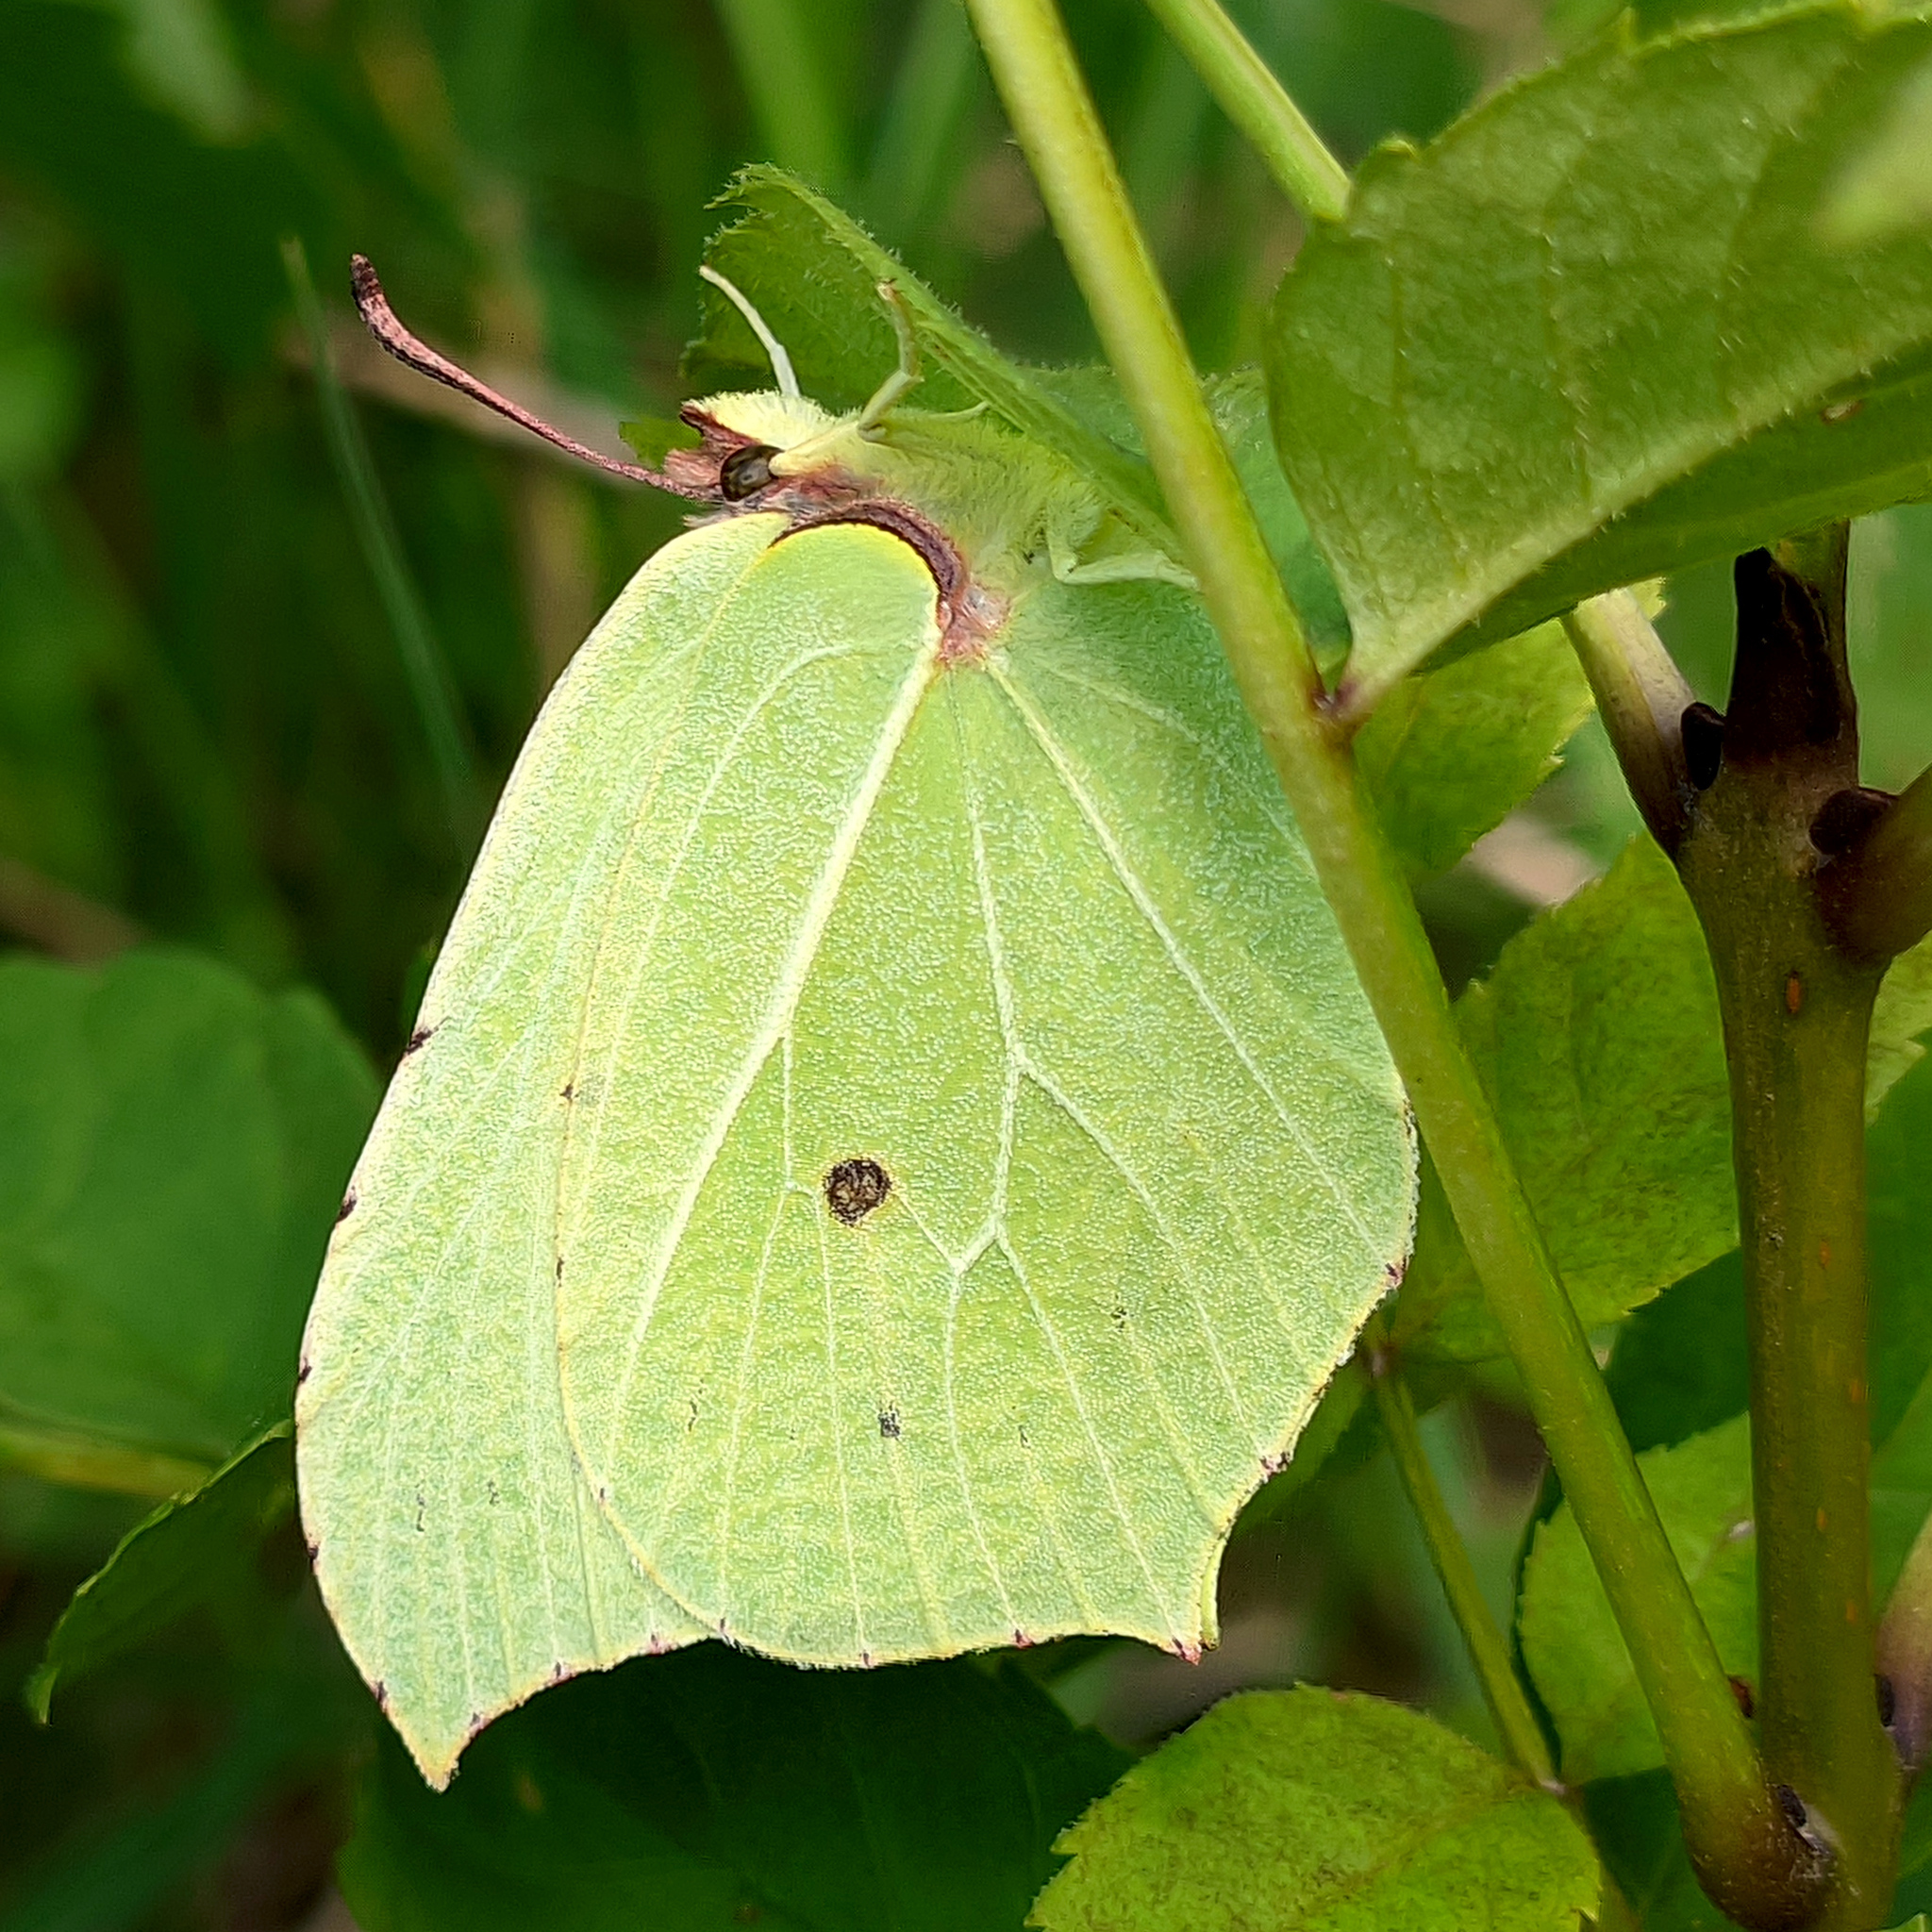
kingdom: Animalia
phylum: Arthropoda
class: Insecta
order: Lepidoptera
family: Pieridae
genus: Gonepteryx
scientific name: Gonepteryx rhamni
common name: Brimstone
